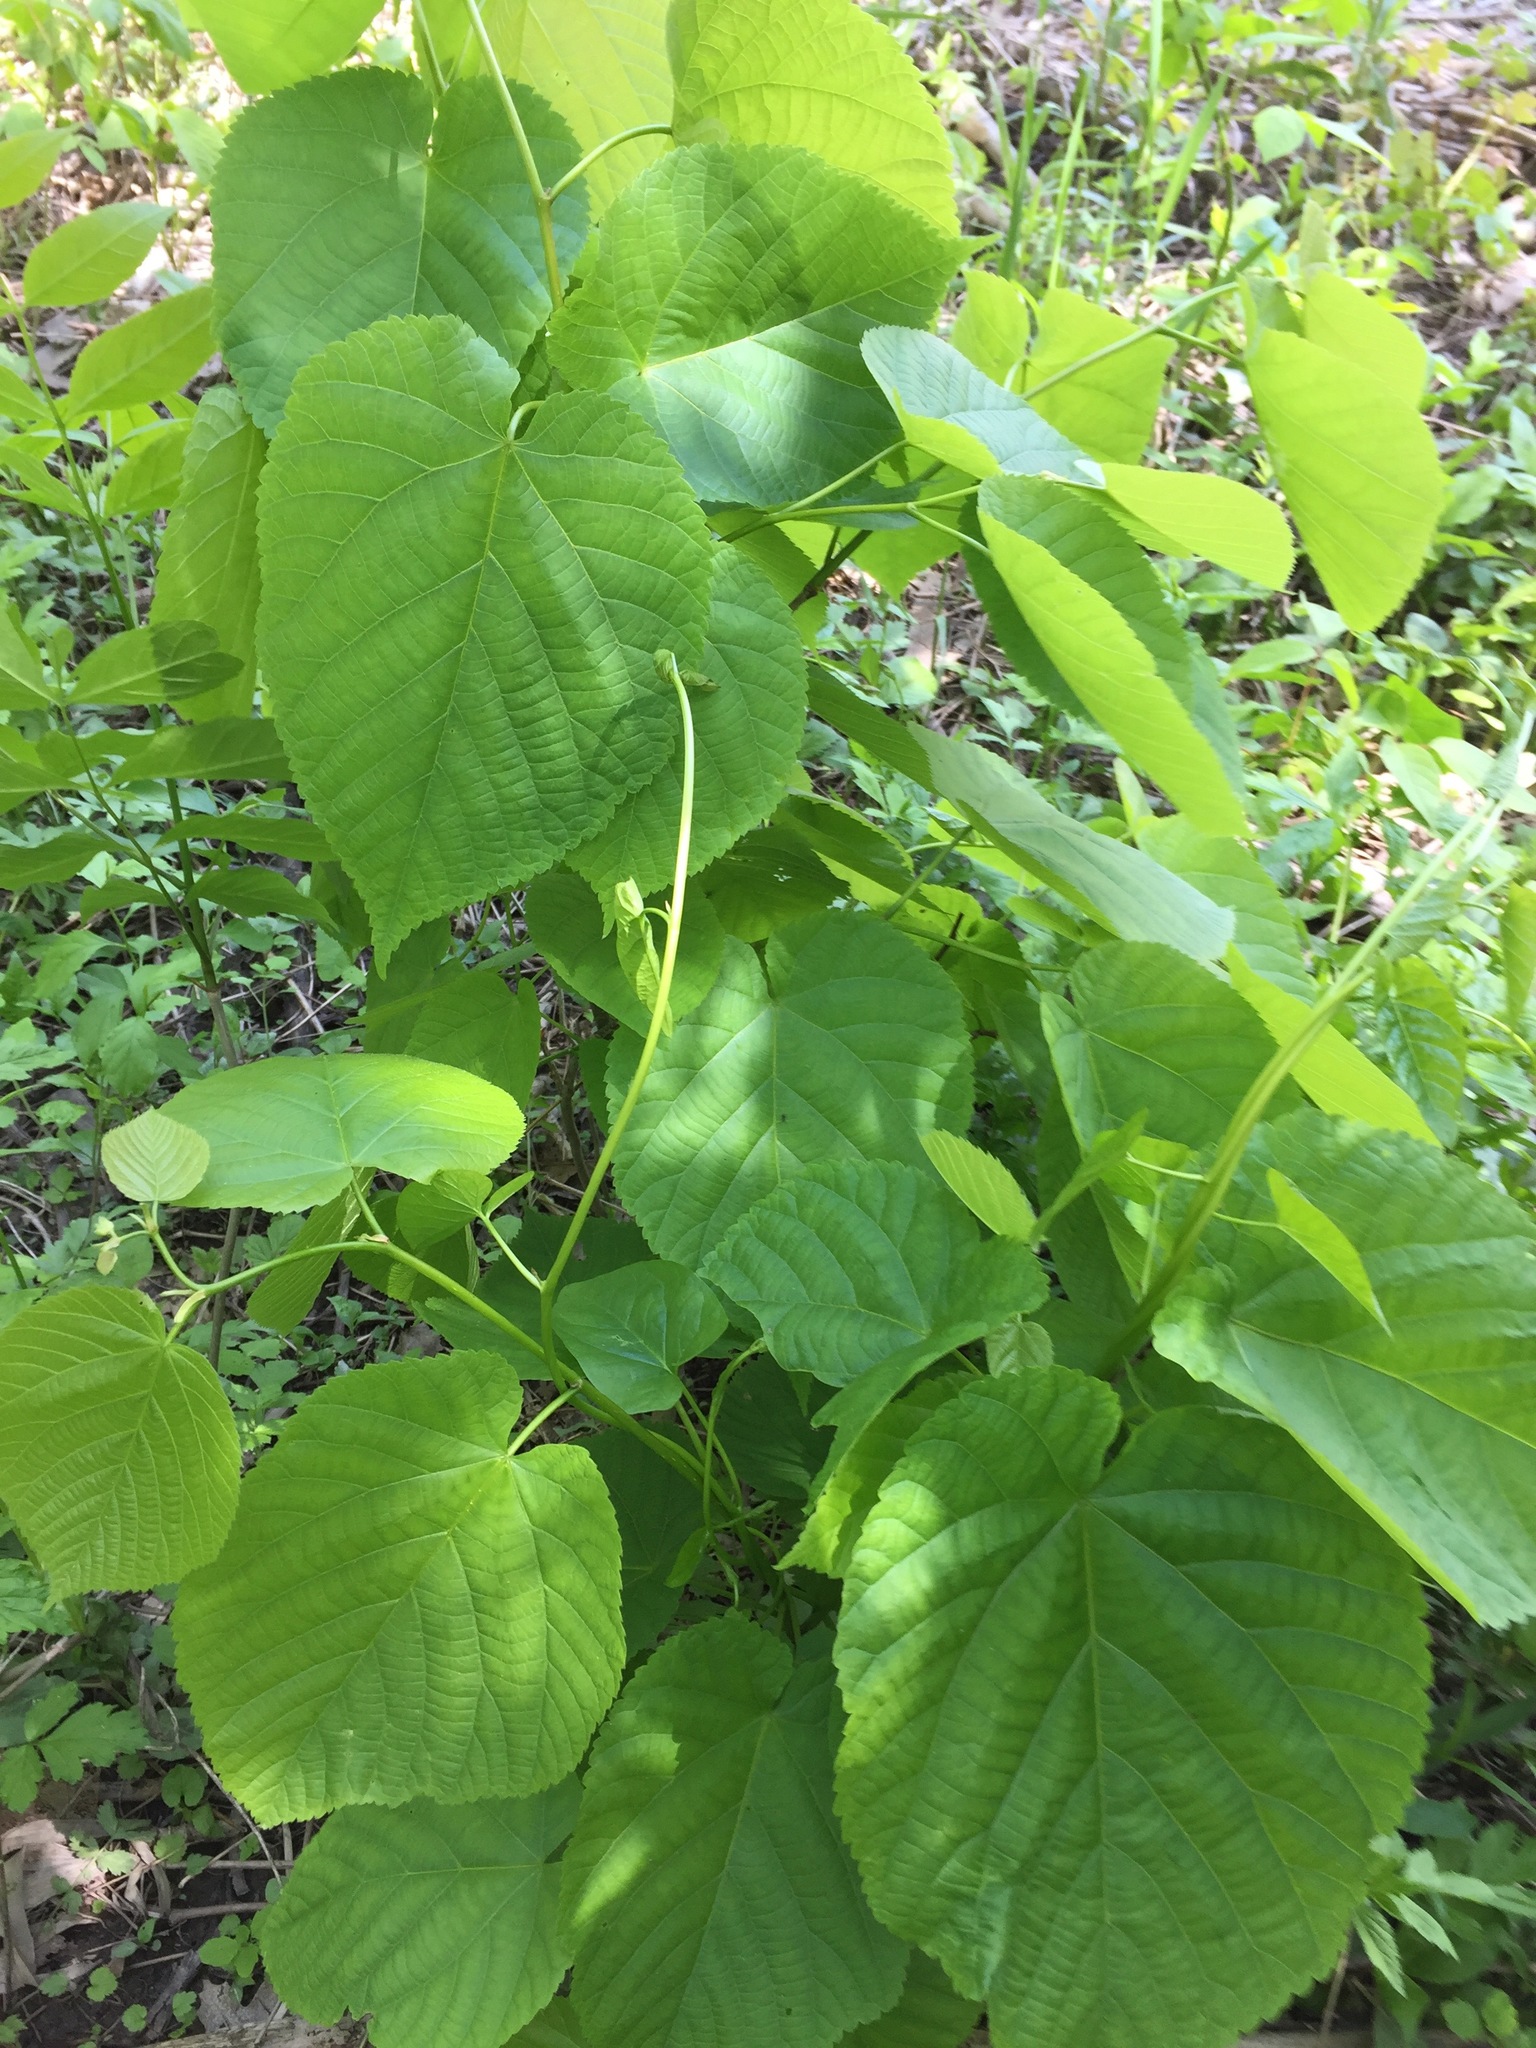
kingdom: Plantae
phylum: Tracheophyta
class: Magnoliopsida
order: Malvales
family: Malvaceae
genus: Tilia
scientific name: Tilia americana
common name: Basswood
